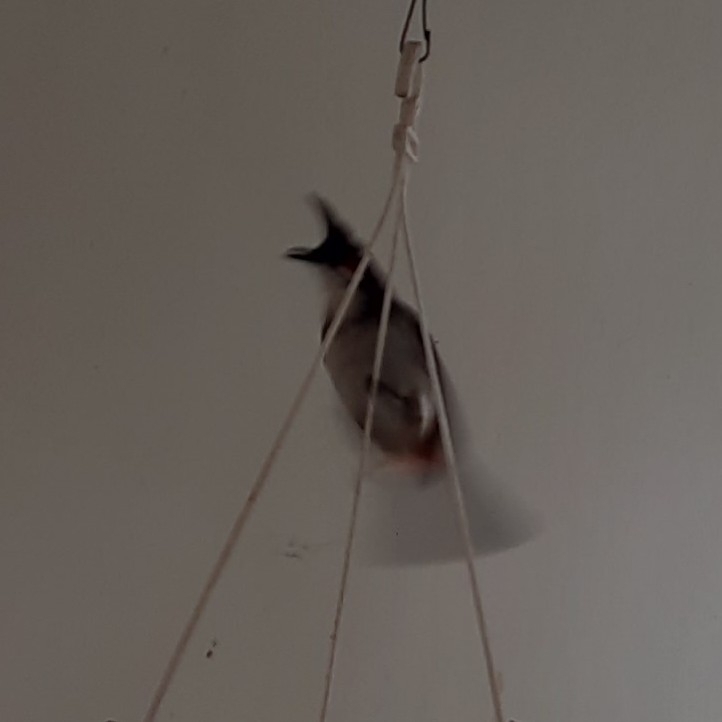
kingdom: Animalia
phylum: Chordata
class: Aves
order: Passeriformes
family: Pycnonotidae
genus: Pycnonotus
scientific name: Pycnonotus jocosus
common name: Red-whiskered bulbul
